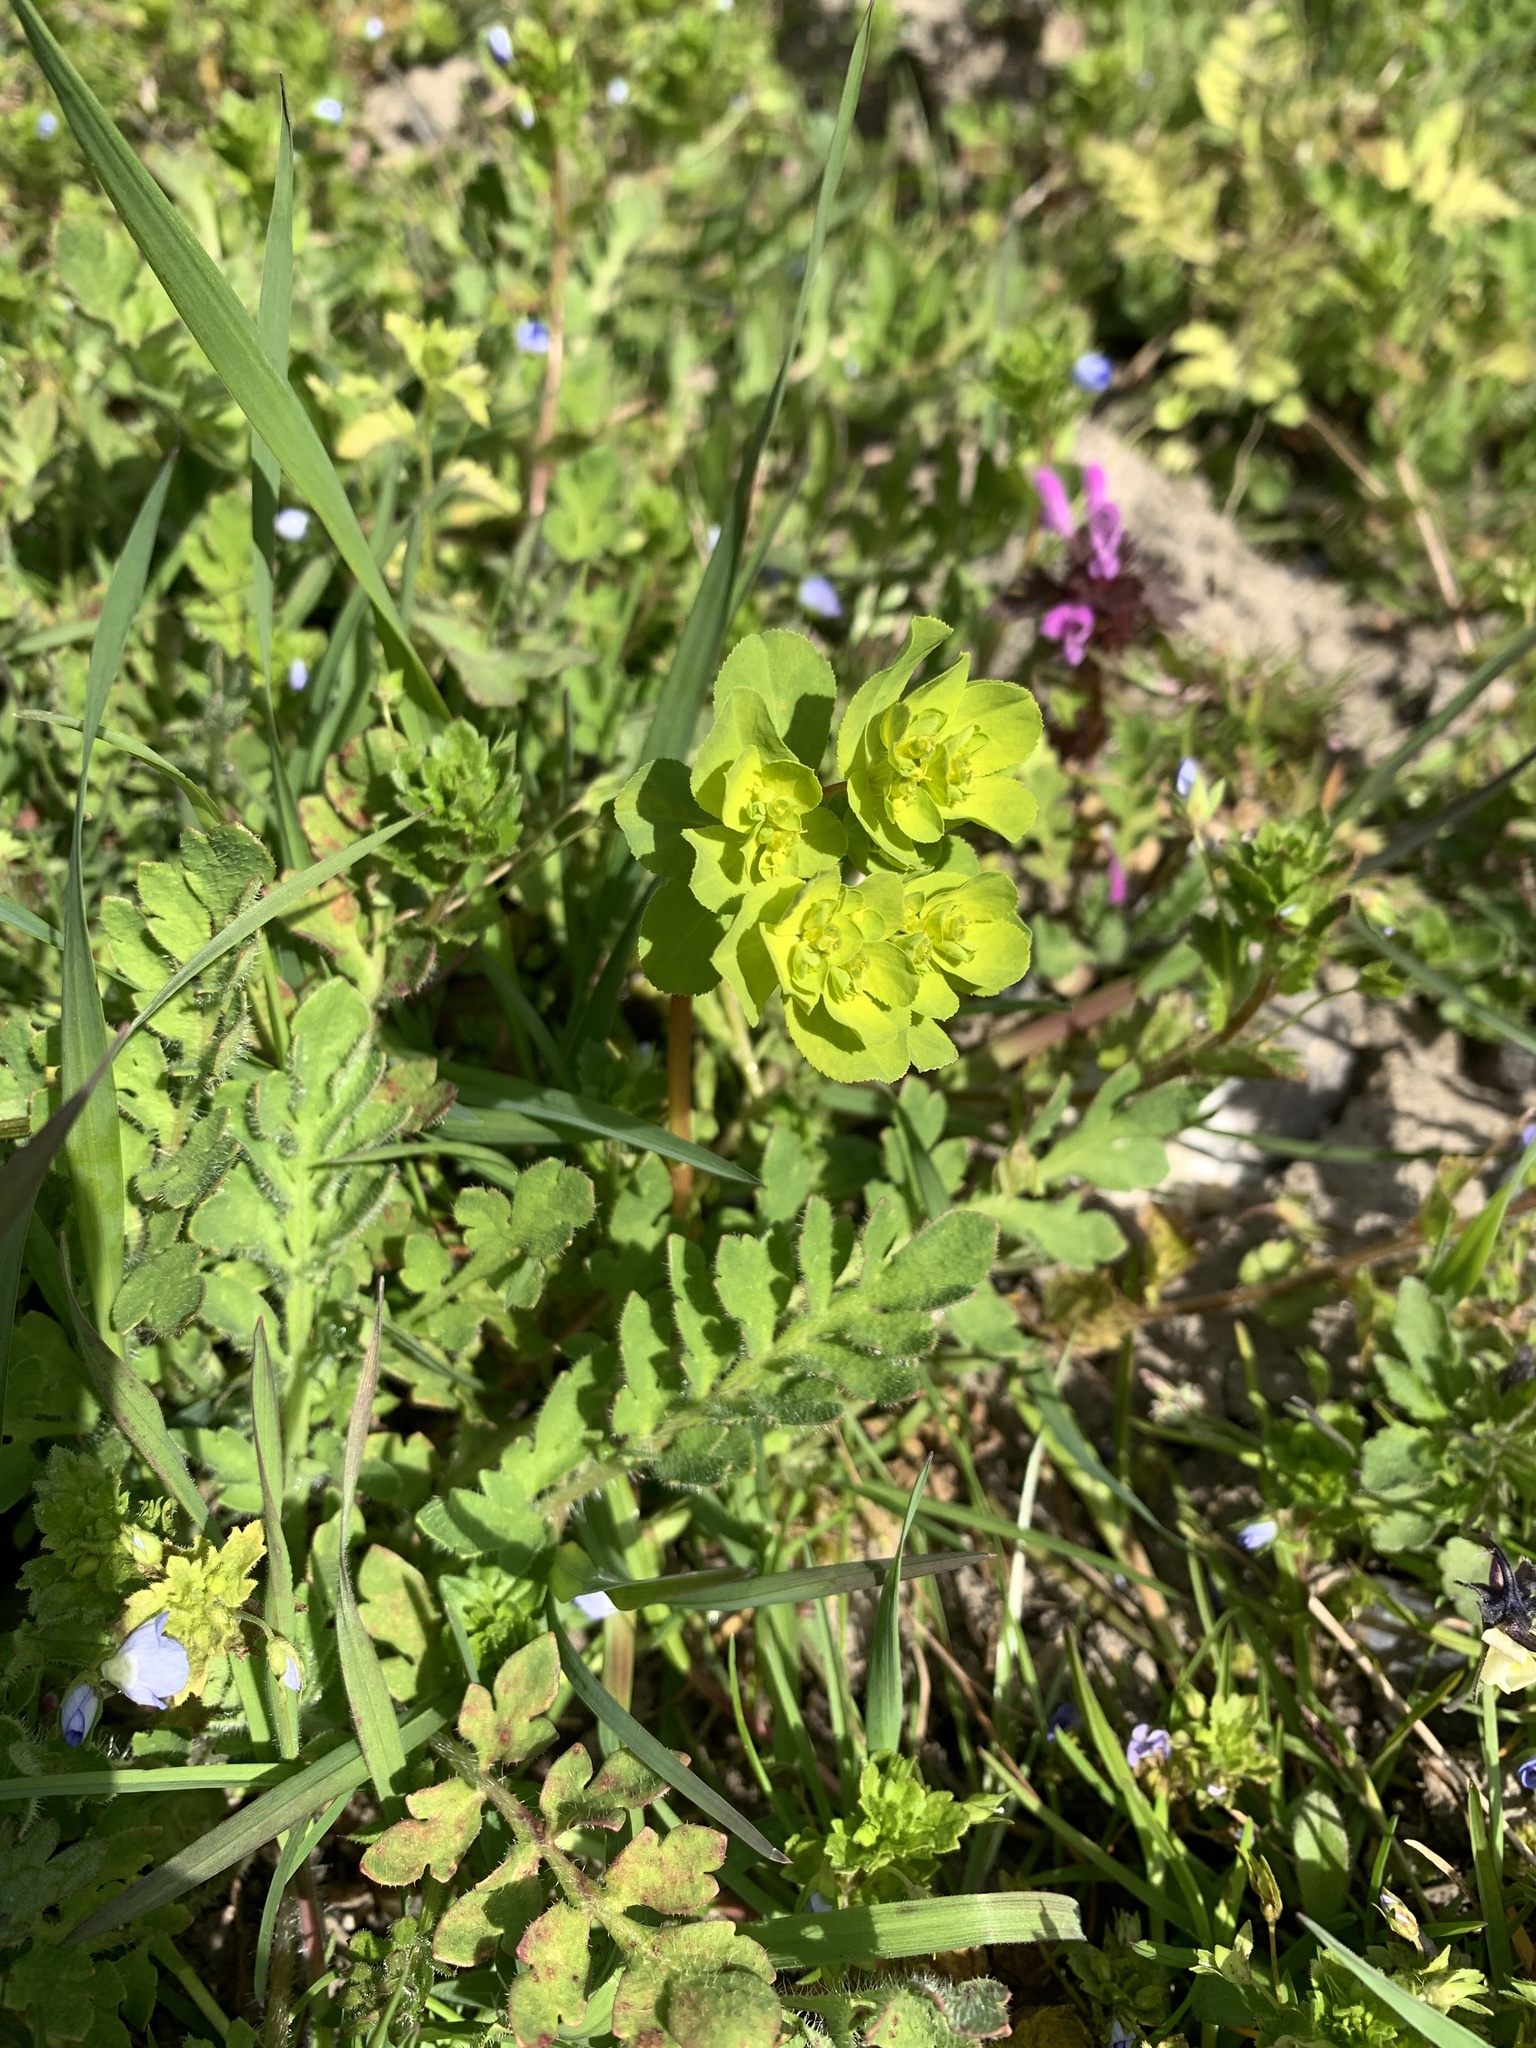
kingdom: Plantae
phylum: Tracheophyta
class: Magnoliopsida
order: Malpighiales
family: Euphorbiaceae
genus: Euphorbia
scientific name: Euphorbia helioscopia
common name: Sun spurge
